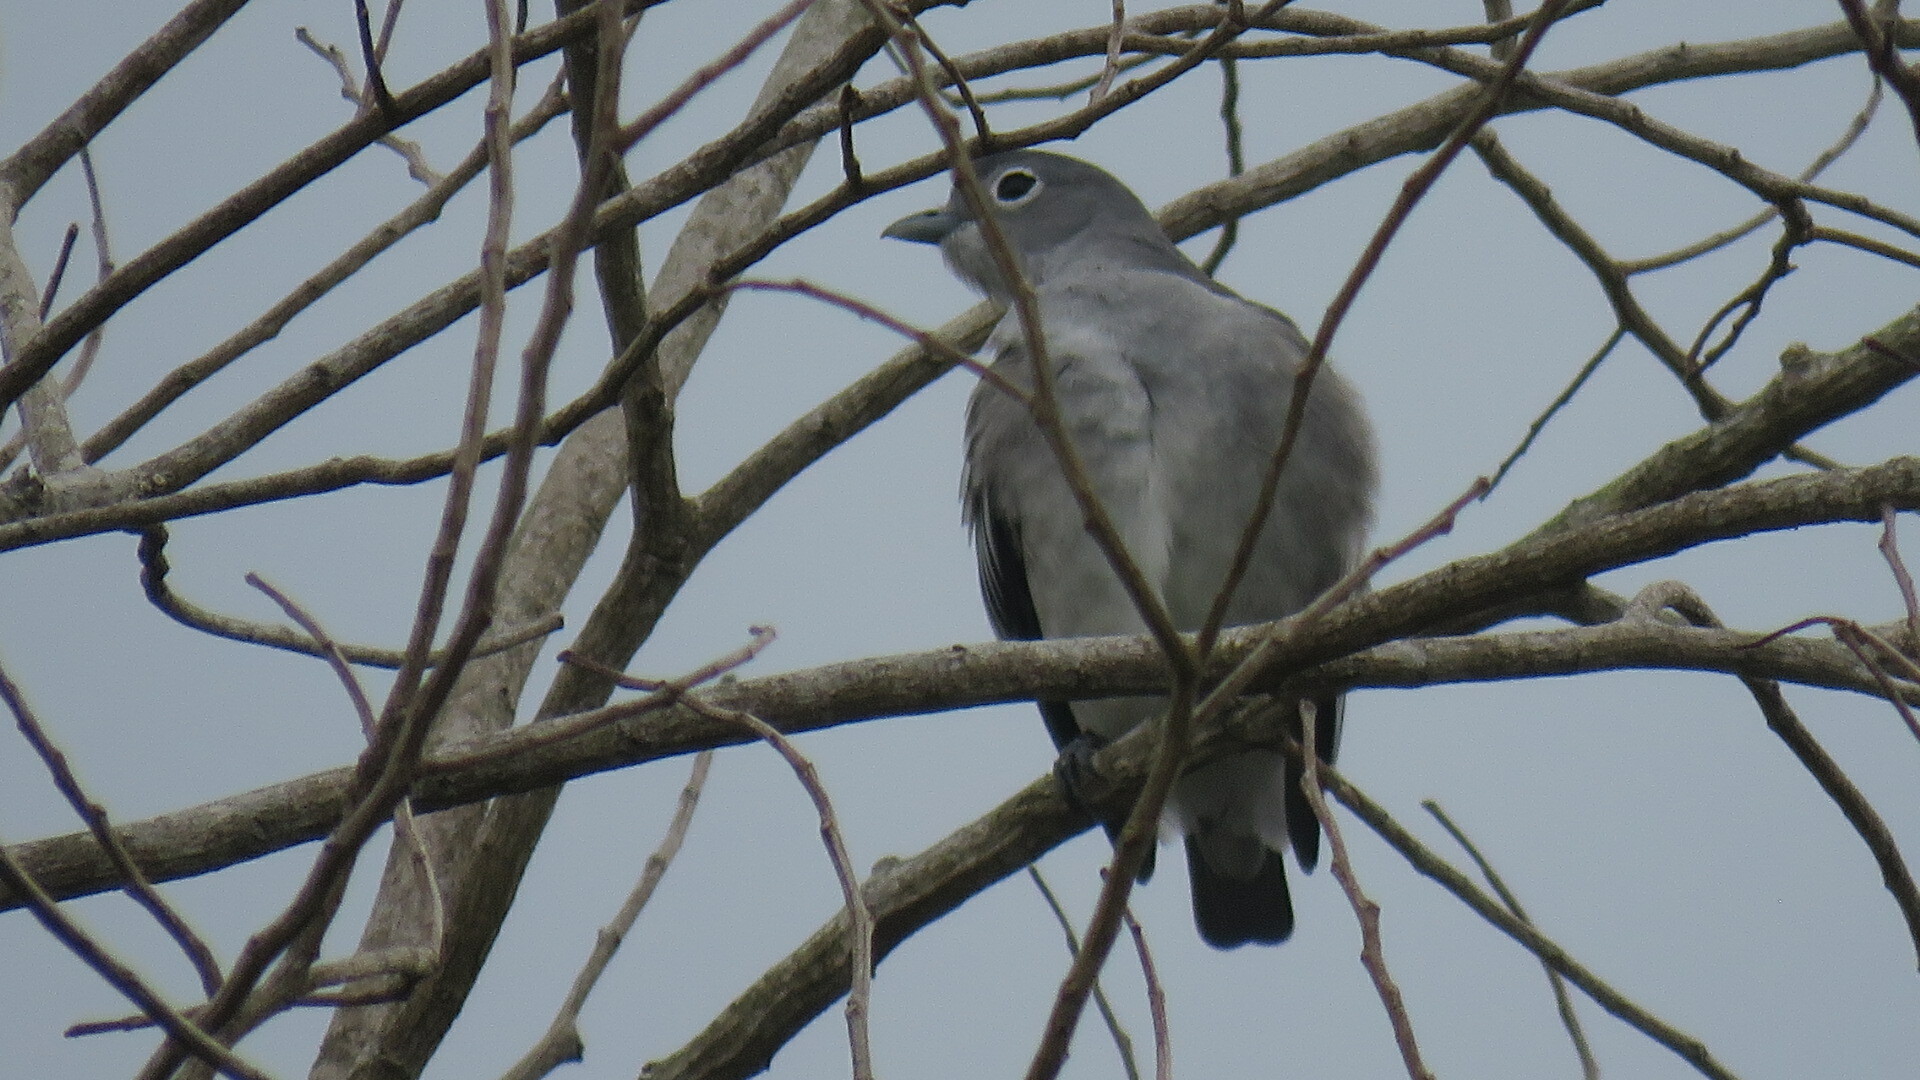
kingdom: Animalia
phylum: Chordata
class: Aves
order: Passeriformes
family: Cotingidae
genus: Carpodectes
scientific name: Carpodectes nitidus
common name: Snowy cotinga
